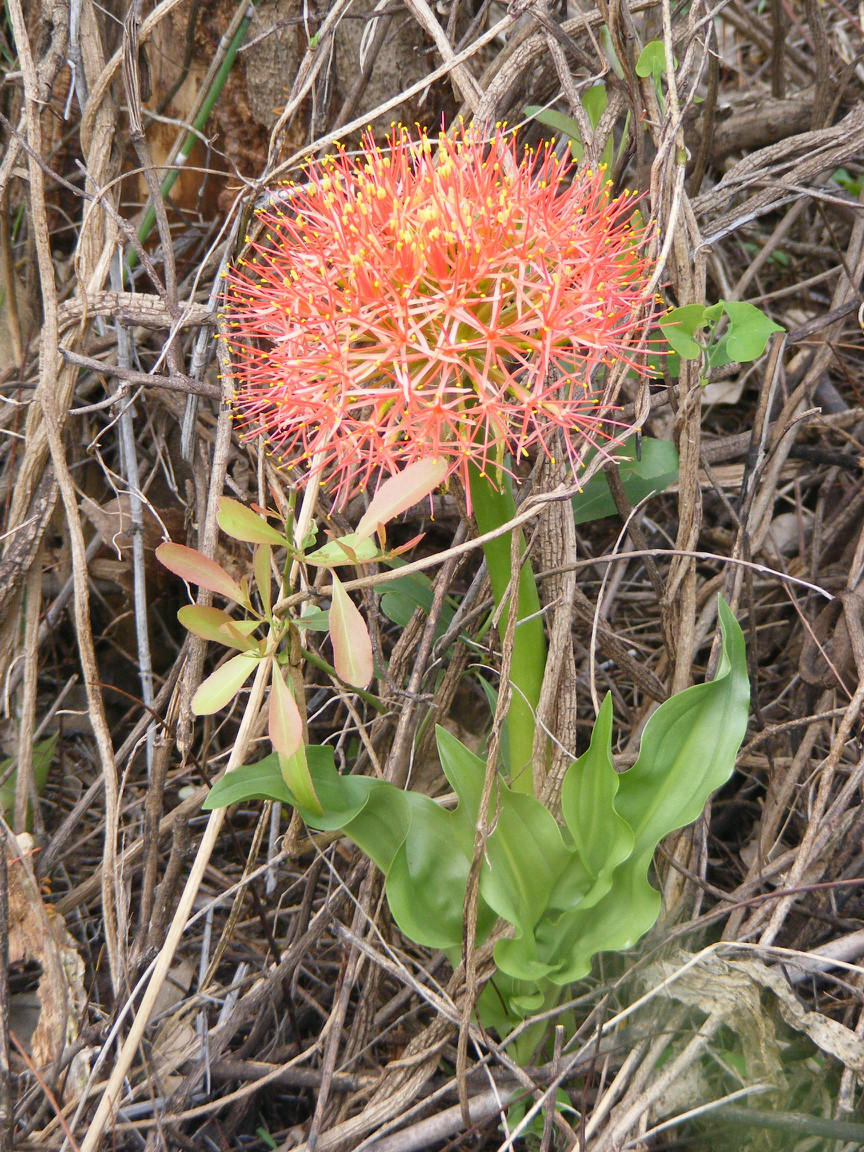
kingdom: Plantae
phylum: Tracheophyta
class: Liliopsida
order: Asparagales
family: Amaryllidaceae
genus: Scadoxus
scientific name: Scadoxus multiflorus
